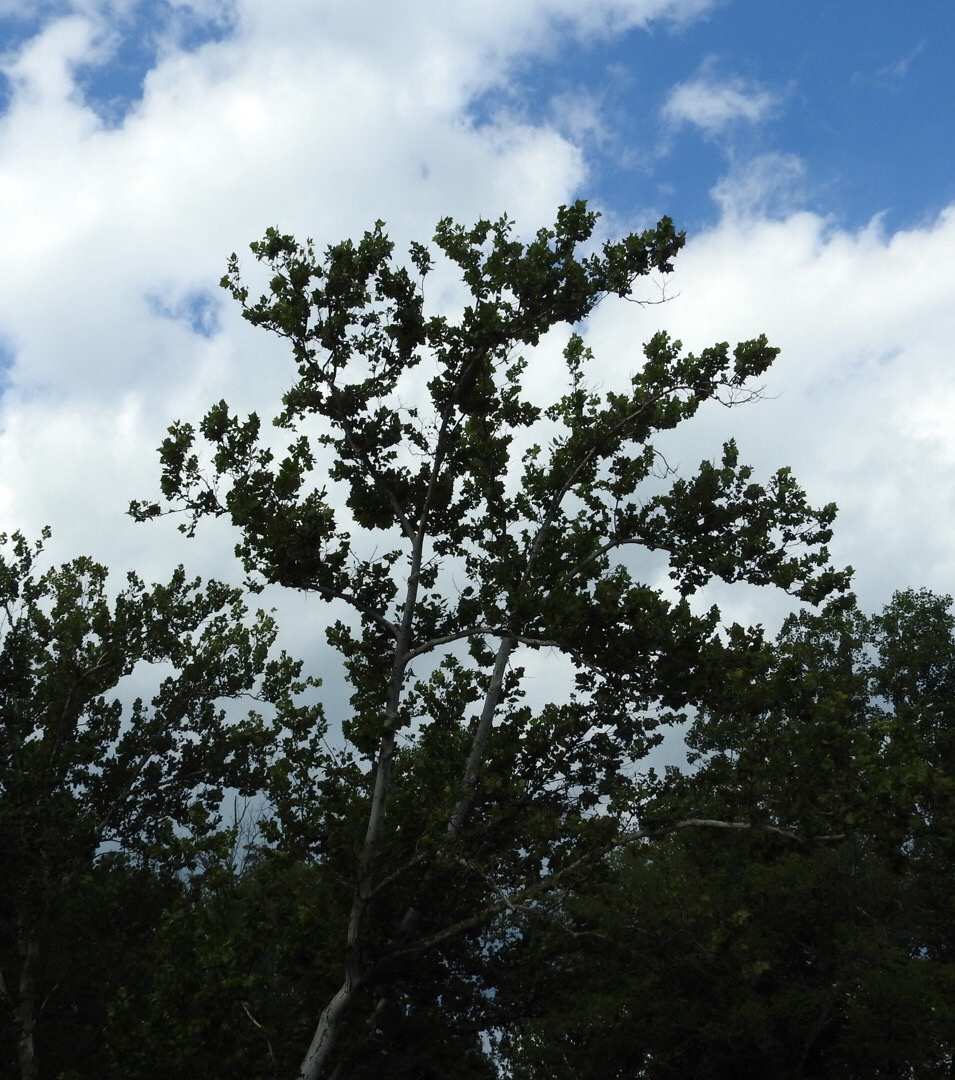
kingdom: Plantae
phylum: Tracheophyta
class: Magnoliopsida
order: Proteales
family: Platanaceae
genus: Platanus
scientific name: Platanus occidentalis
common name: American sycamore
